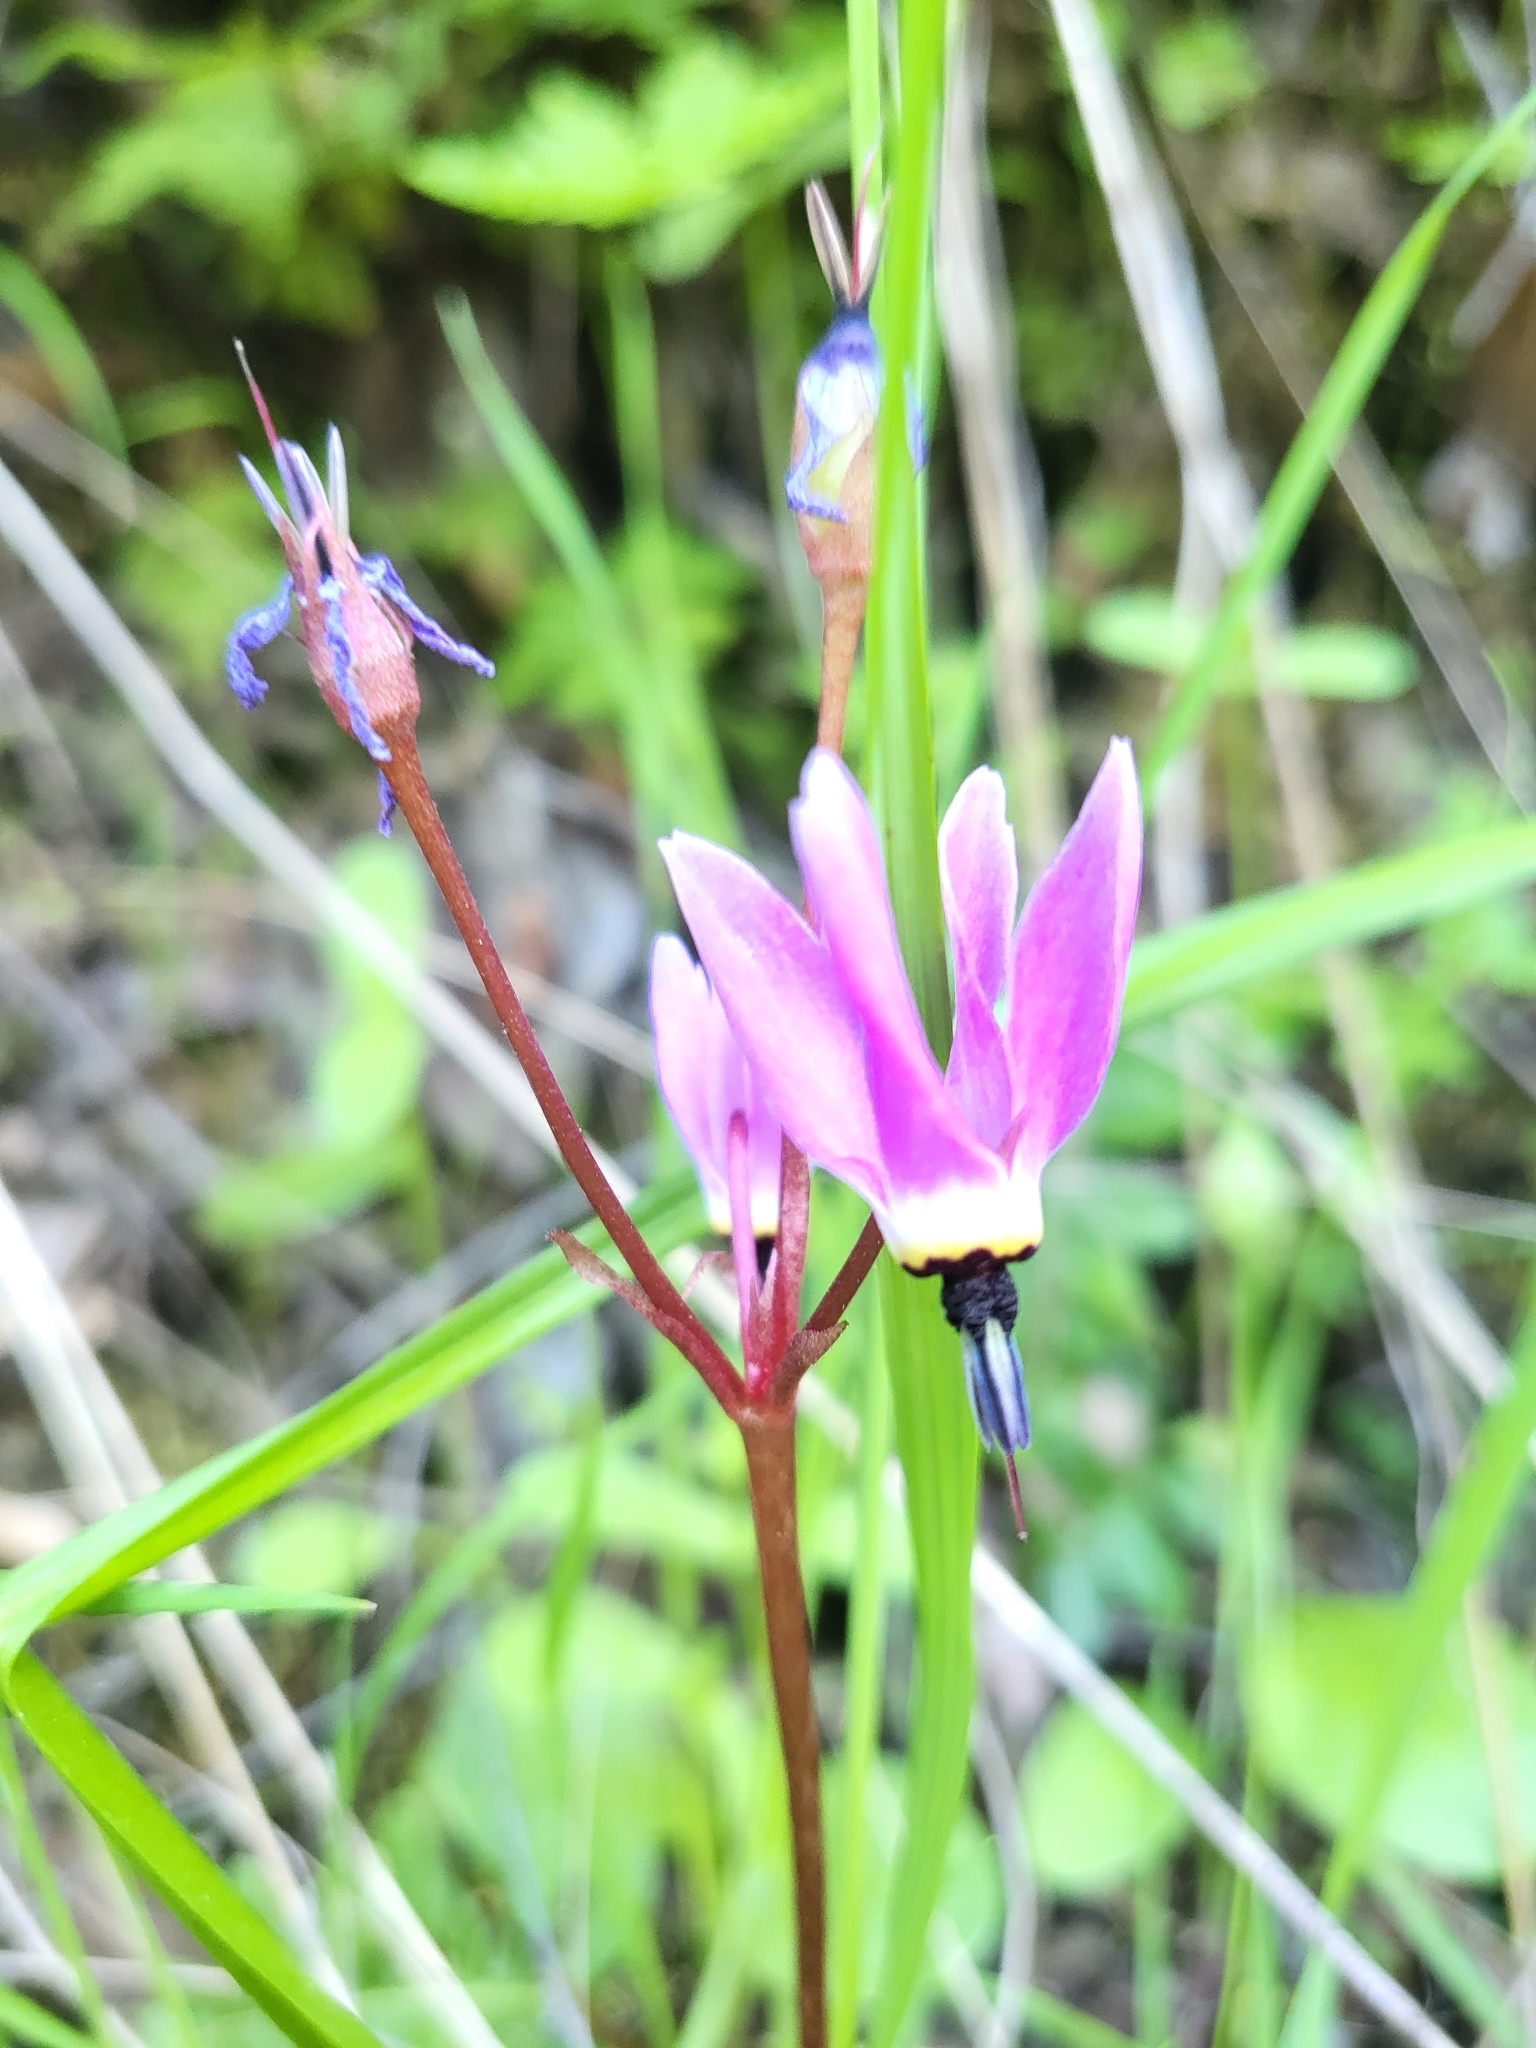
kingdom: Plantae
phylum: Tracheophyta
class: Magnoliopsida
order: Ericales
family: Primulaceae
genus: Dodecatheon
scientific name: Dodecatheon hendersonii
